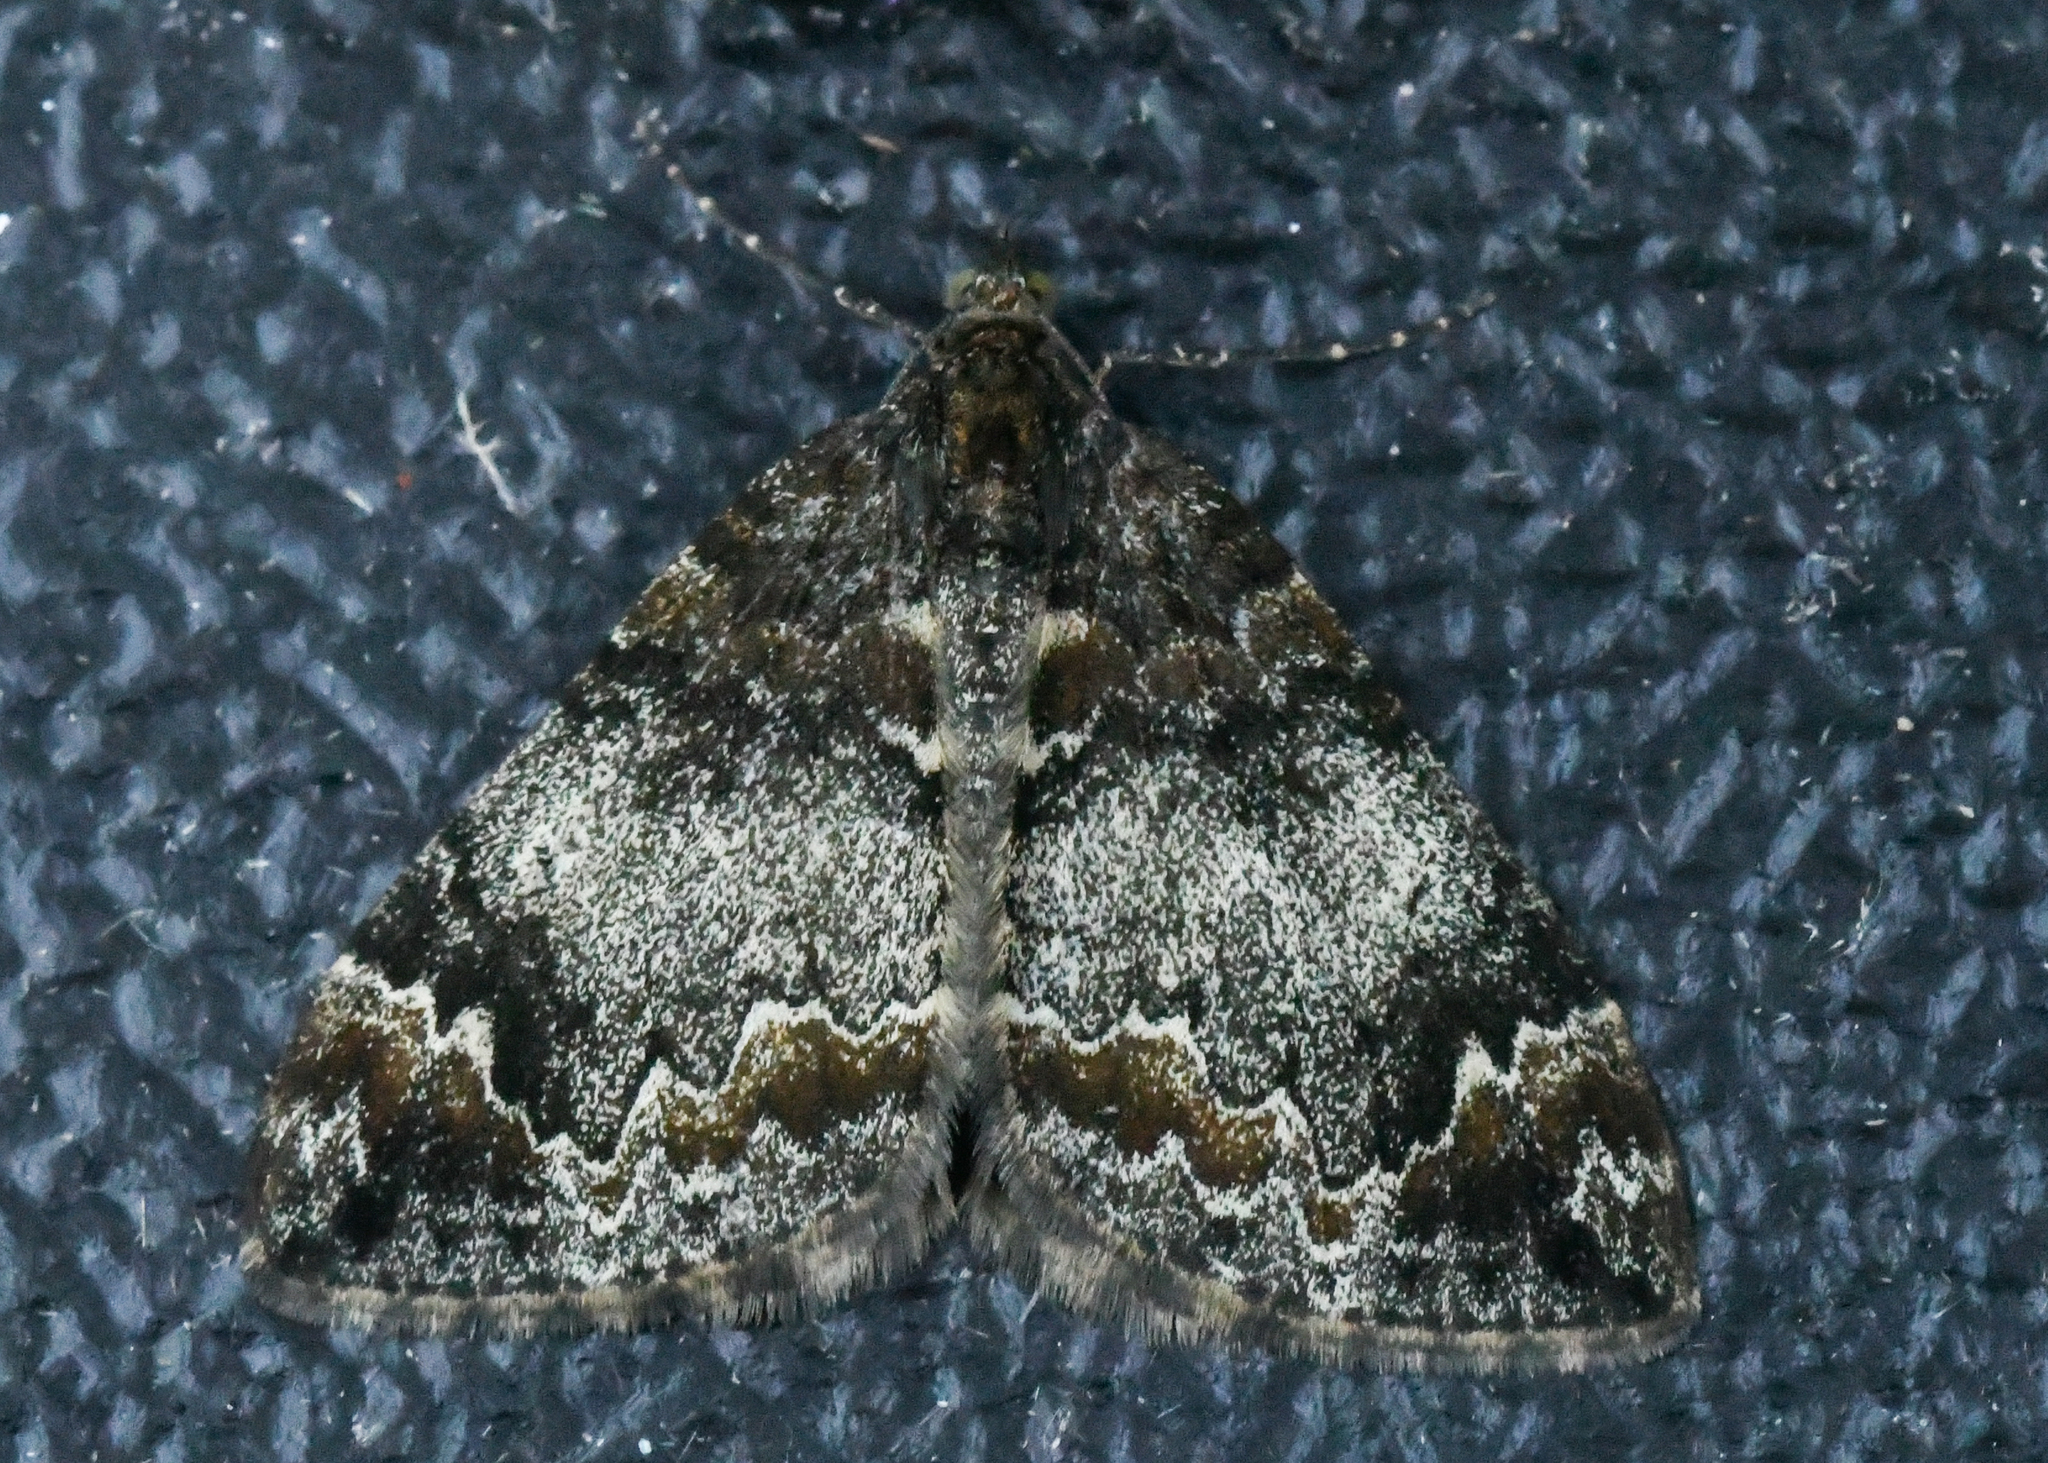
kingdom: Animalia
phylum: Arthropoda
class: Insecta
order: Lepidoptera
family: Geometridae
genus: Dysstroma
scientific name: Dysstroma truncata
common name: Common marbled carpet
